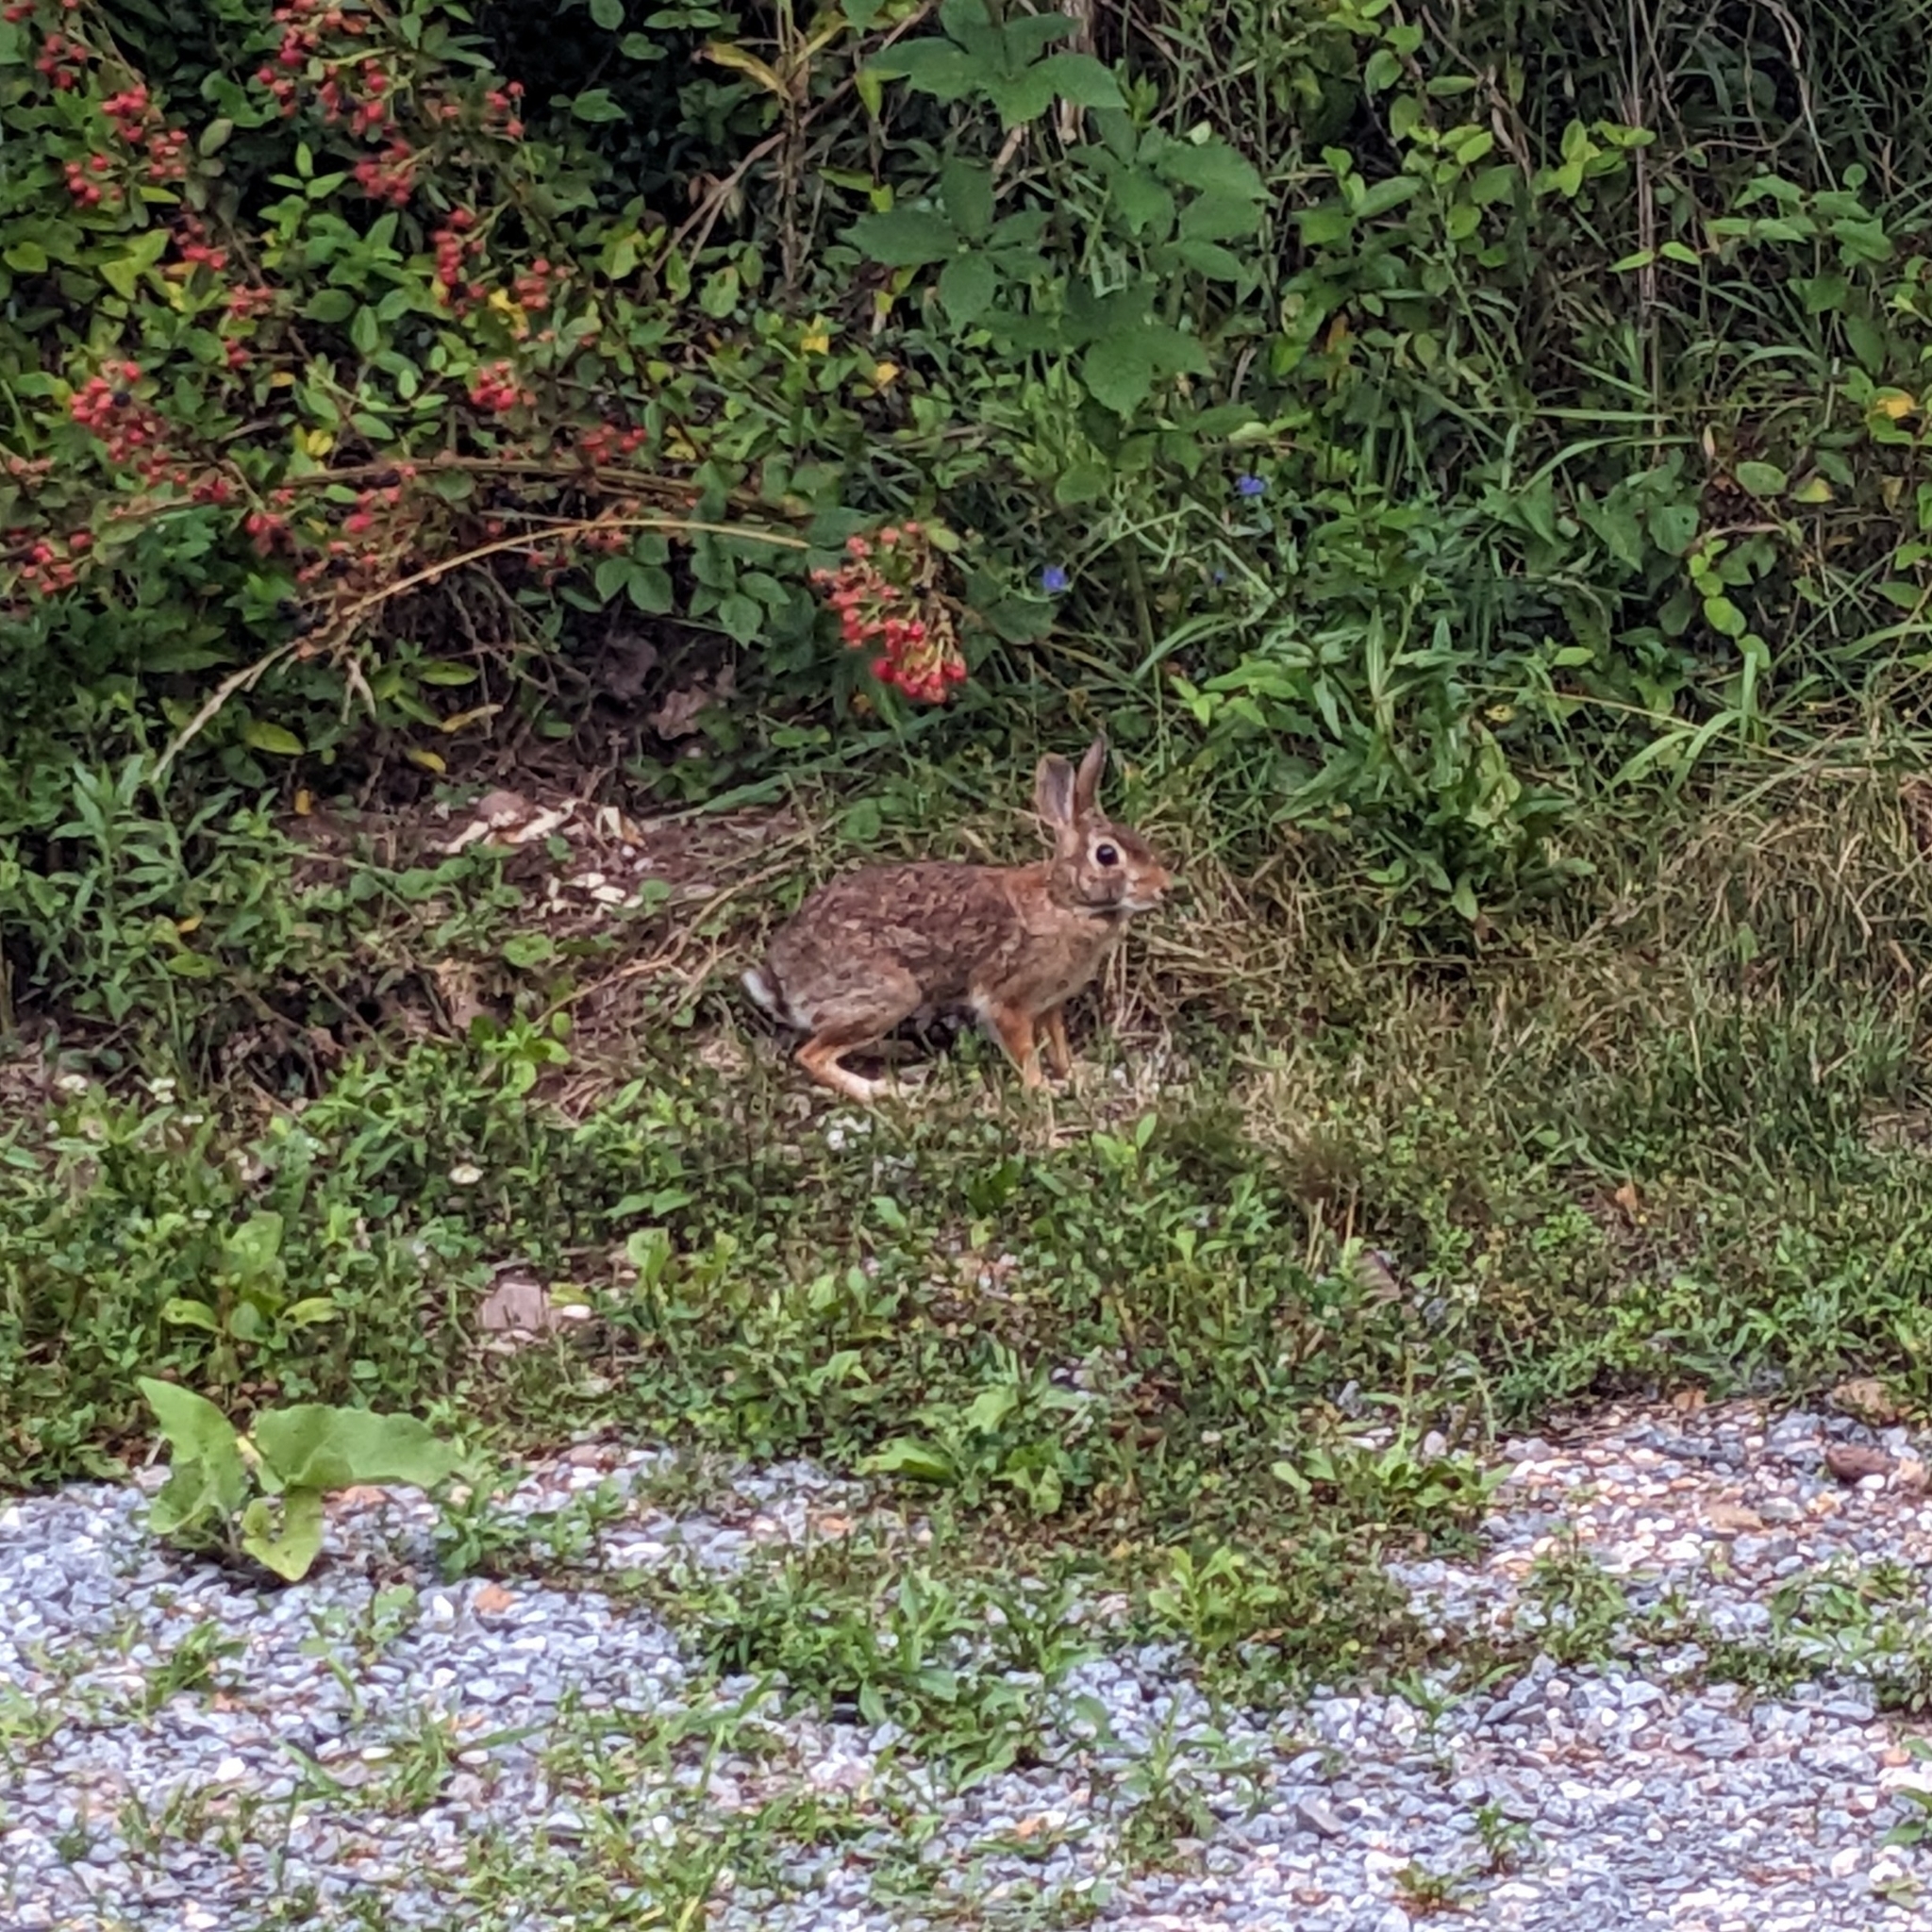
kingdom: Animalia
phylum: Chordata
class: Mammalia
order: Lagomorpha
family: Leporidae
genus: Sylvilagus
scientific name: Sylvilagus floridanus
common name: Eastern cottontail
